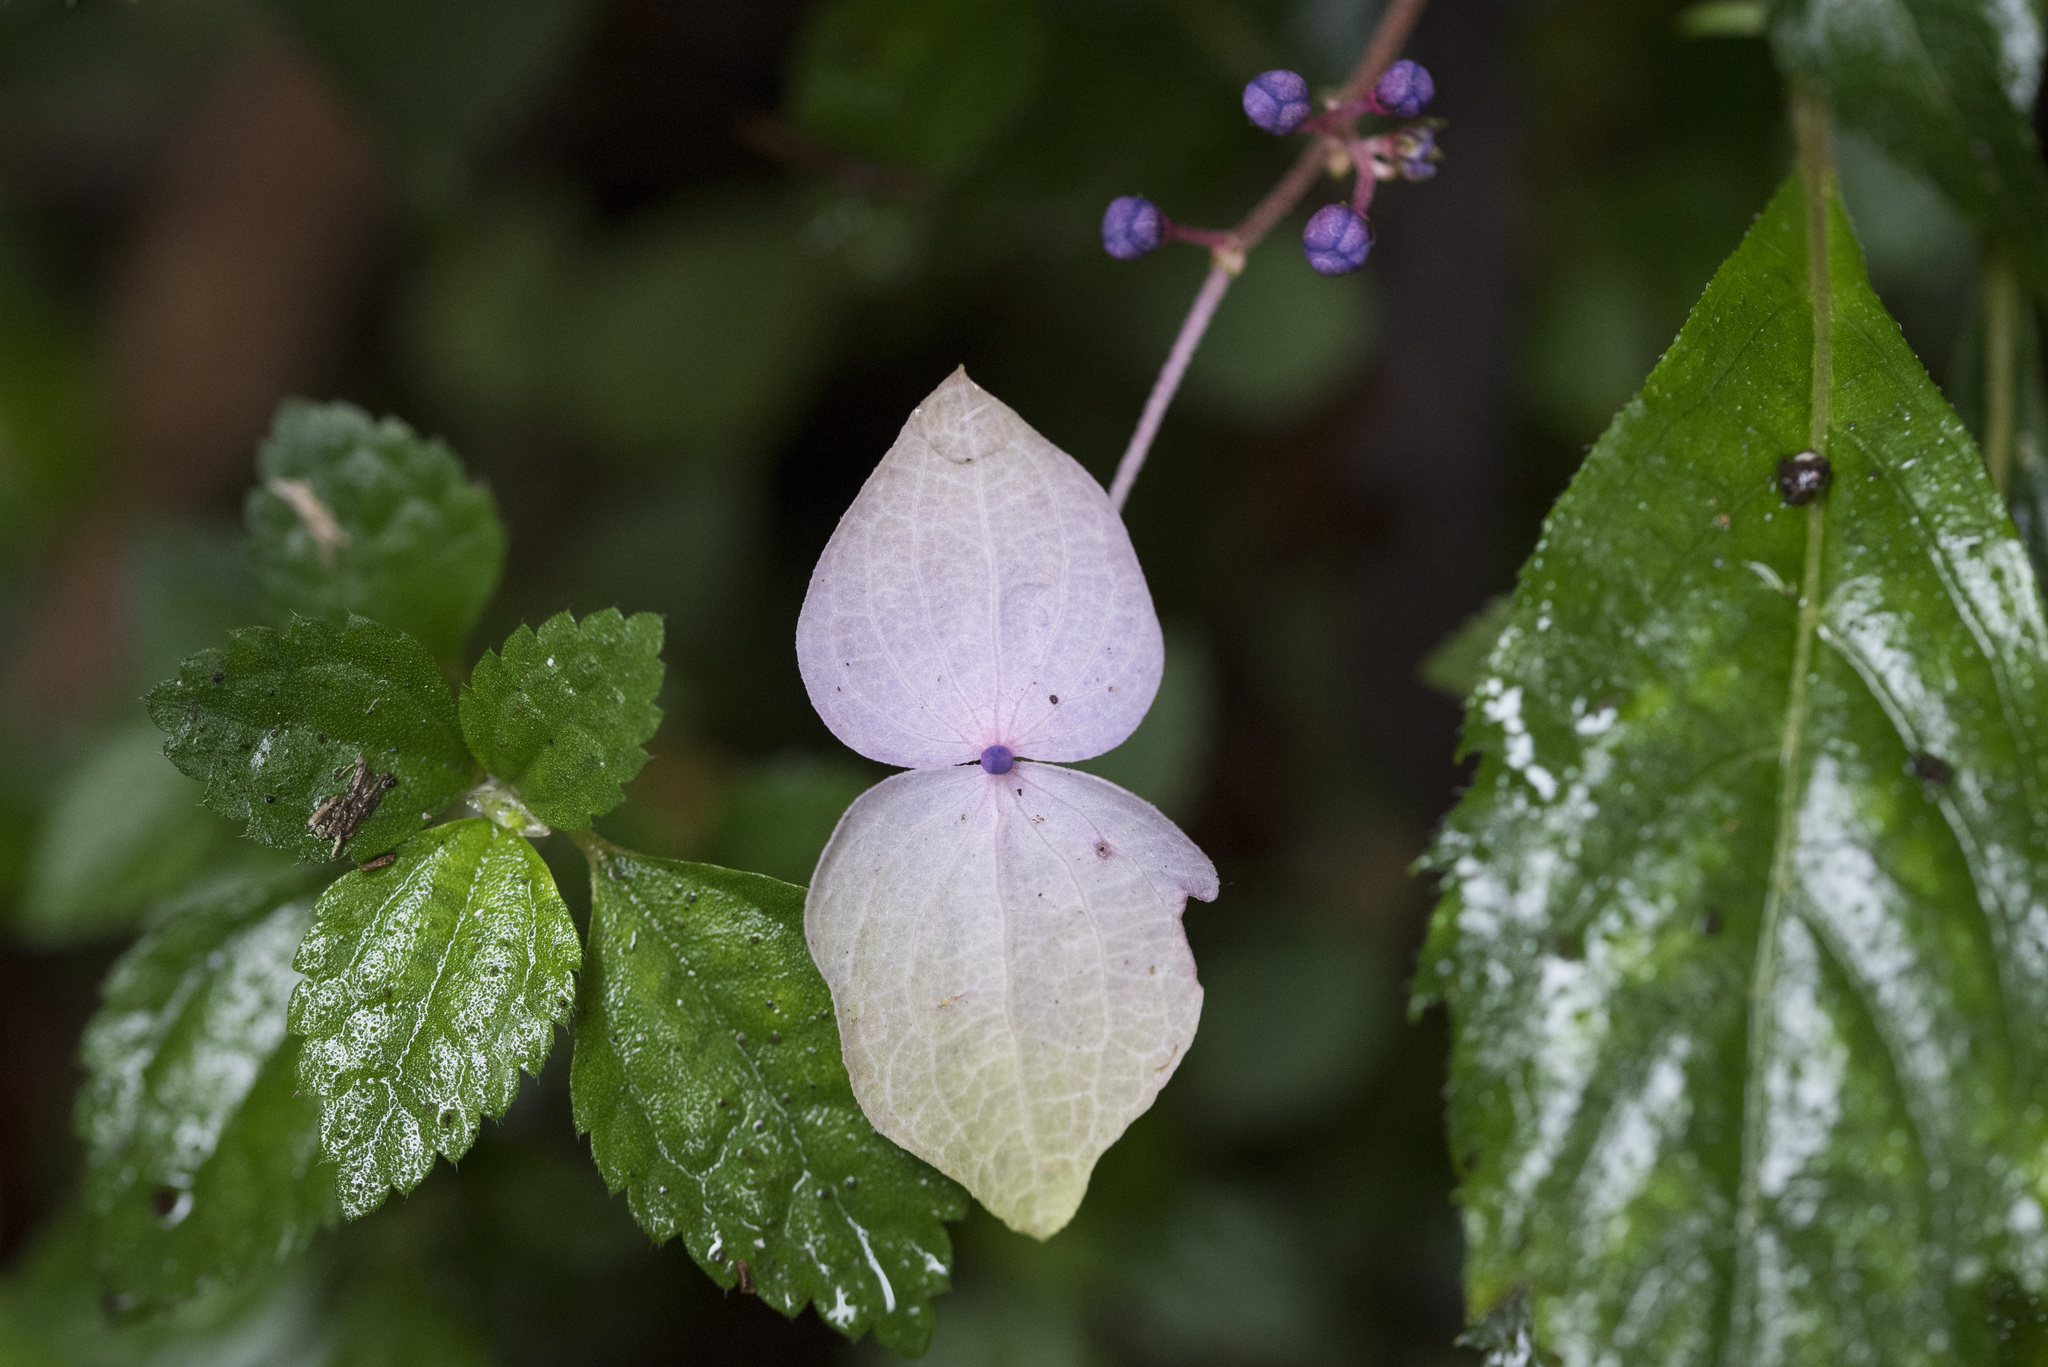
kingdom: Plantae
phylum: Tracheophyta
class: Magnoliopsida
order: Cornales
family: Hydrangeaceae
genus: Hydrangea
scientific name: Hydrangea densifolia
